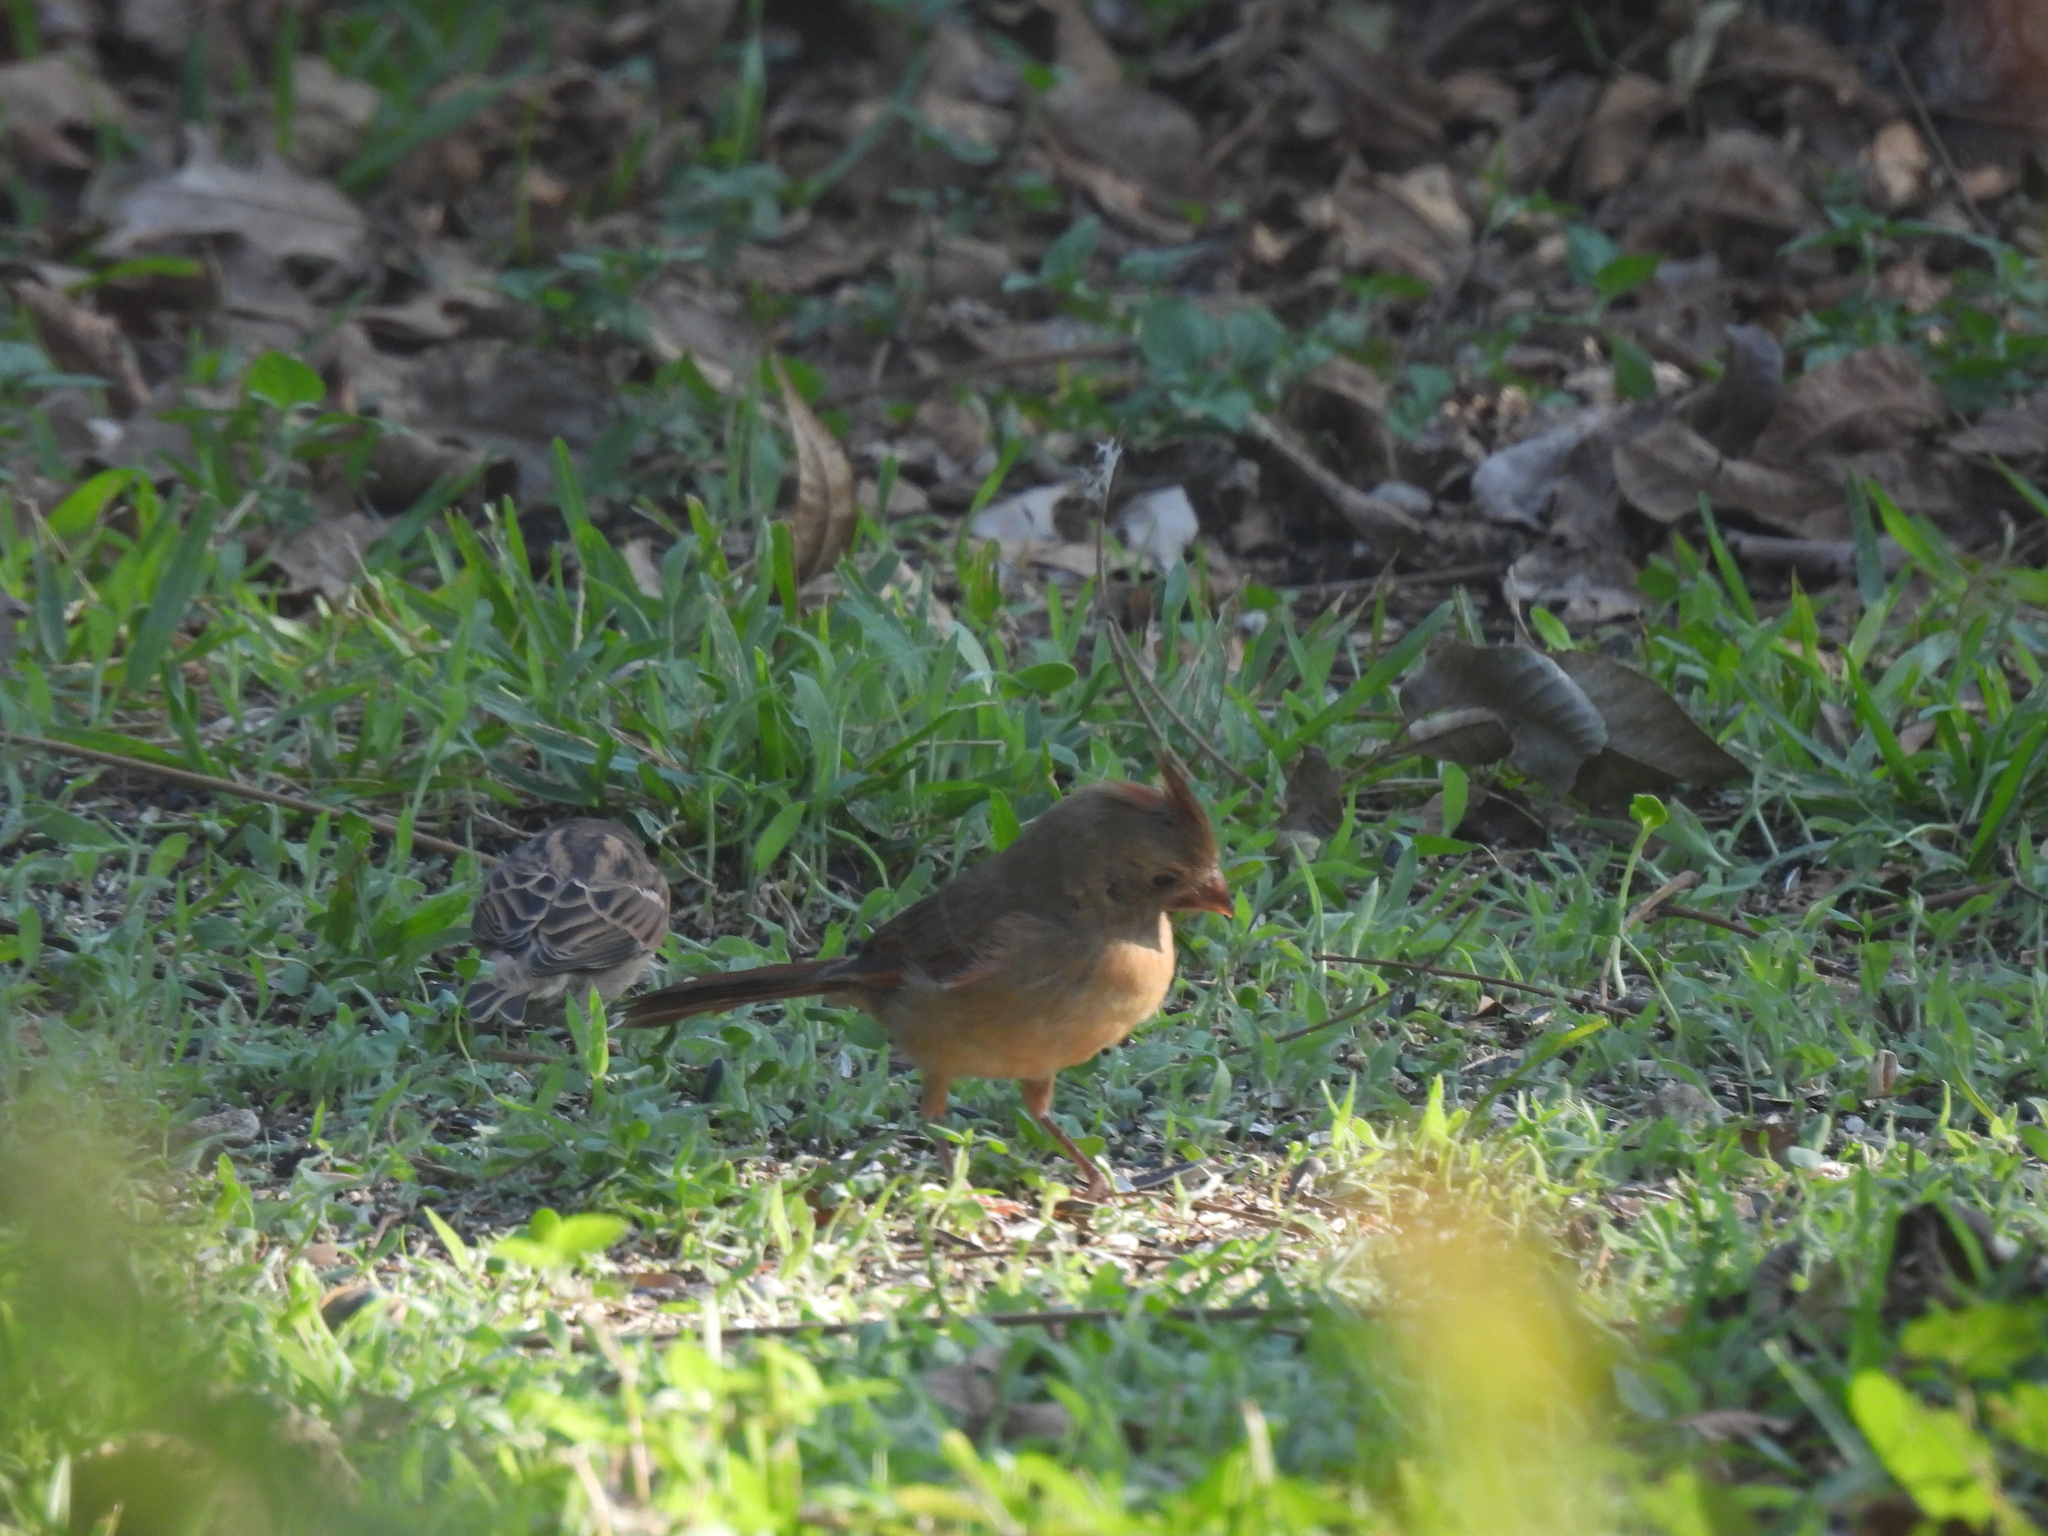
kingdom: Animalia
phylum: Chordata
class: Aves
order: Passeriformes
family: Cardinalidae
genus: Cardinalis
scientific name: Cardinalis cardinalis
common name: Northern cardinal
